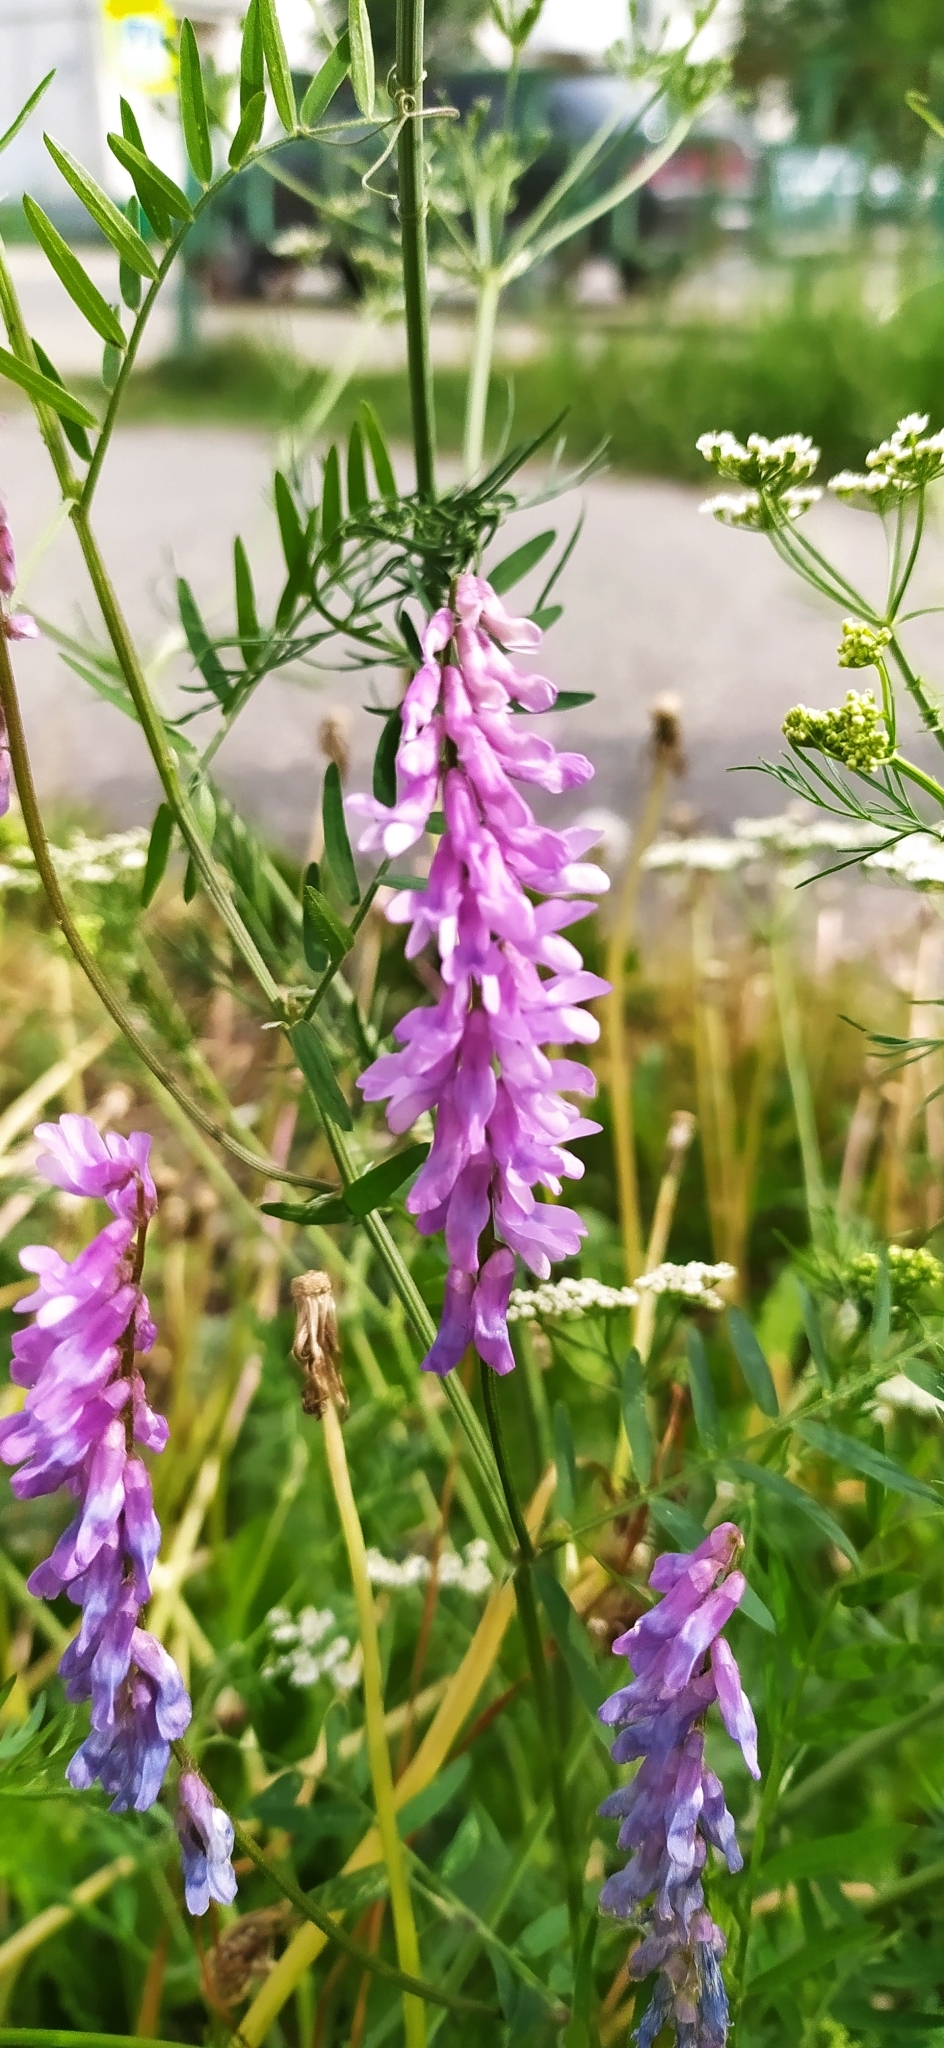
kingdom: Plantae
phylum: Tracheophyta
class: Magnoliopsida
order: Fabales
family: Fabaceae
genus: Vicia
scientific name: Vicia cracca
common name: Bird vetch
